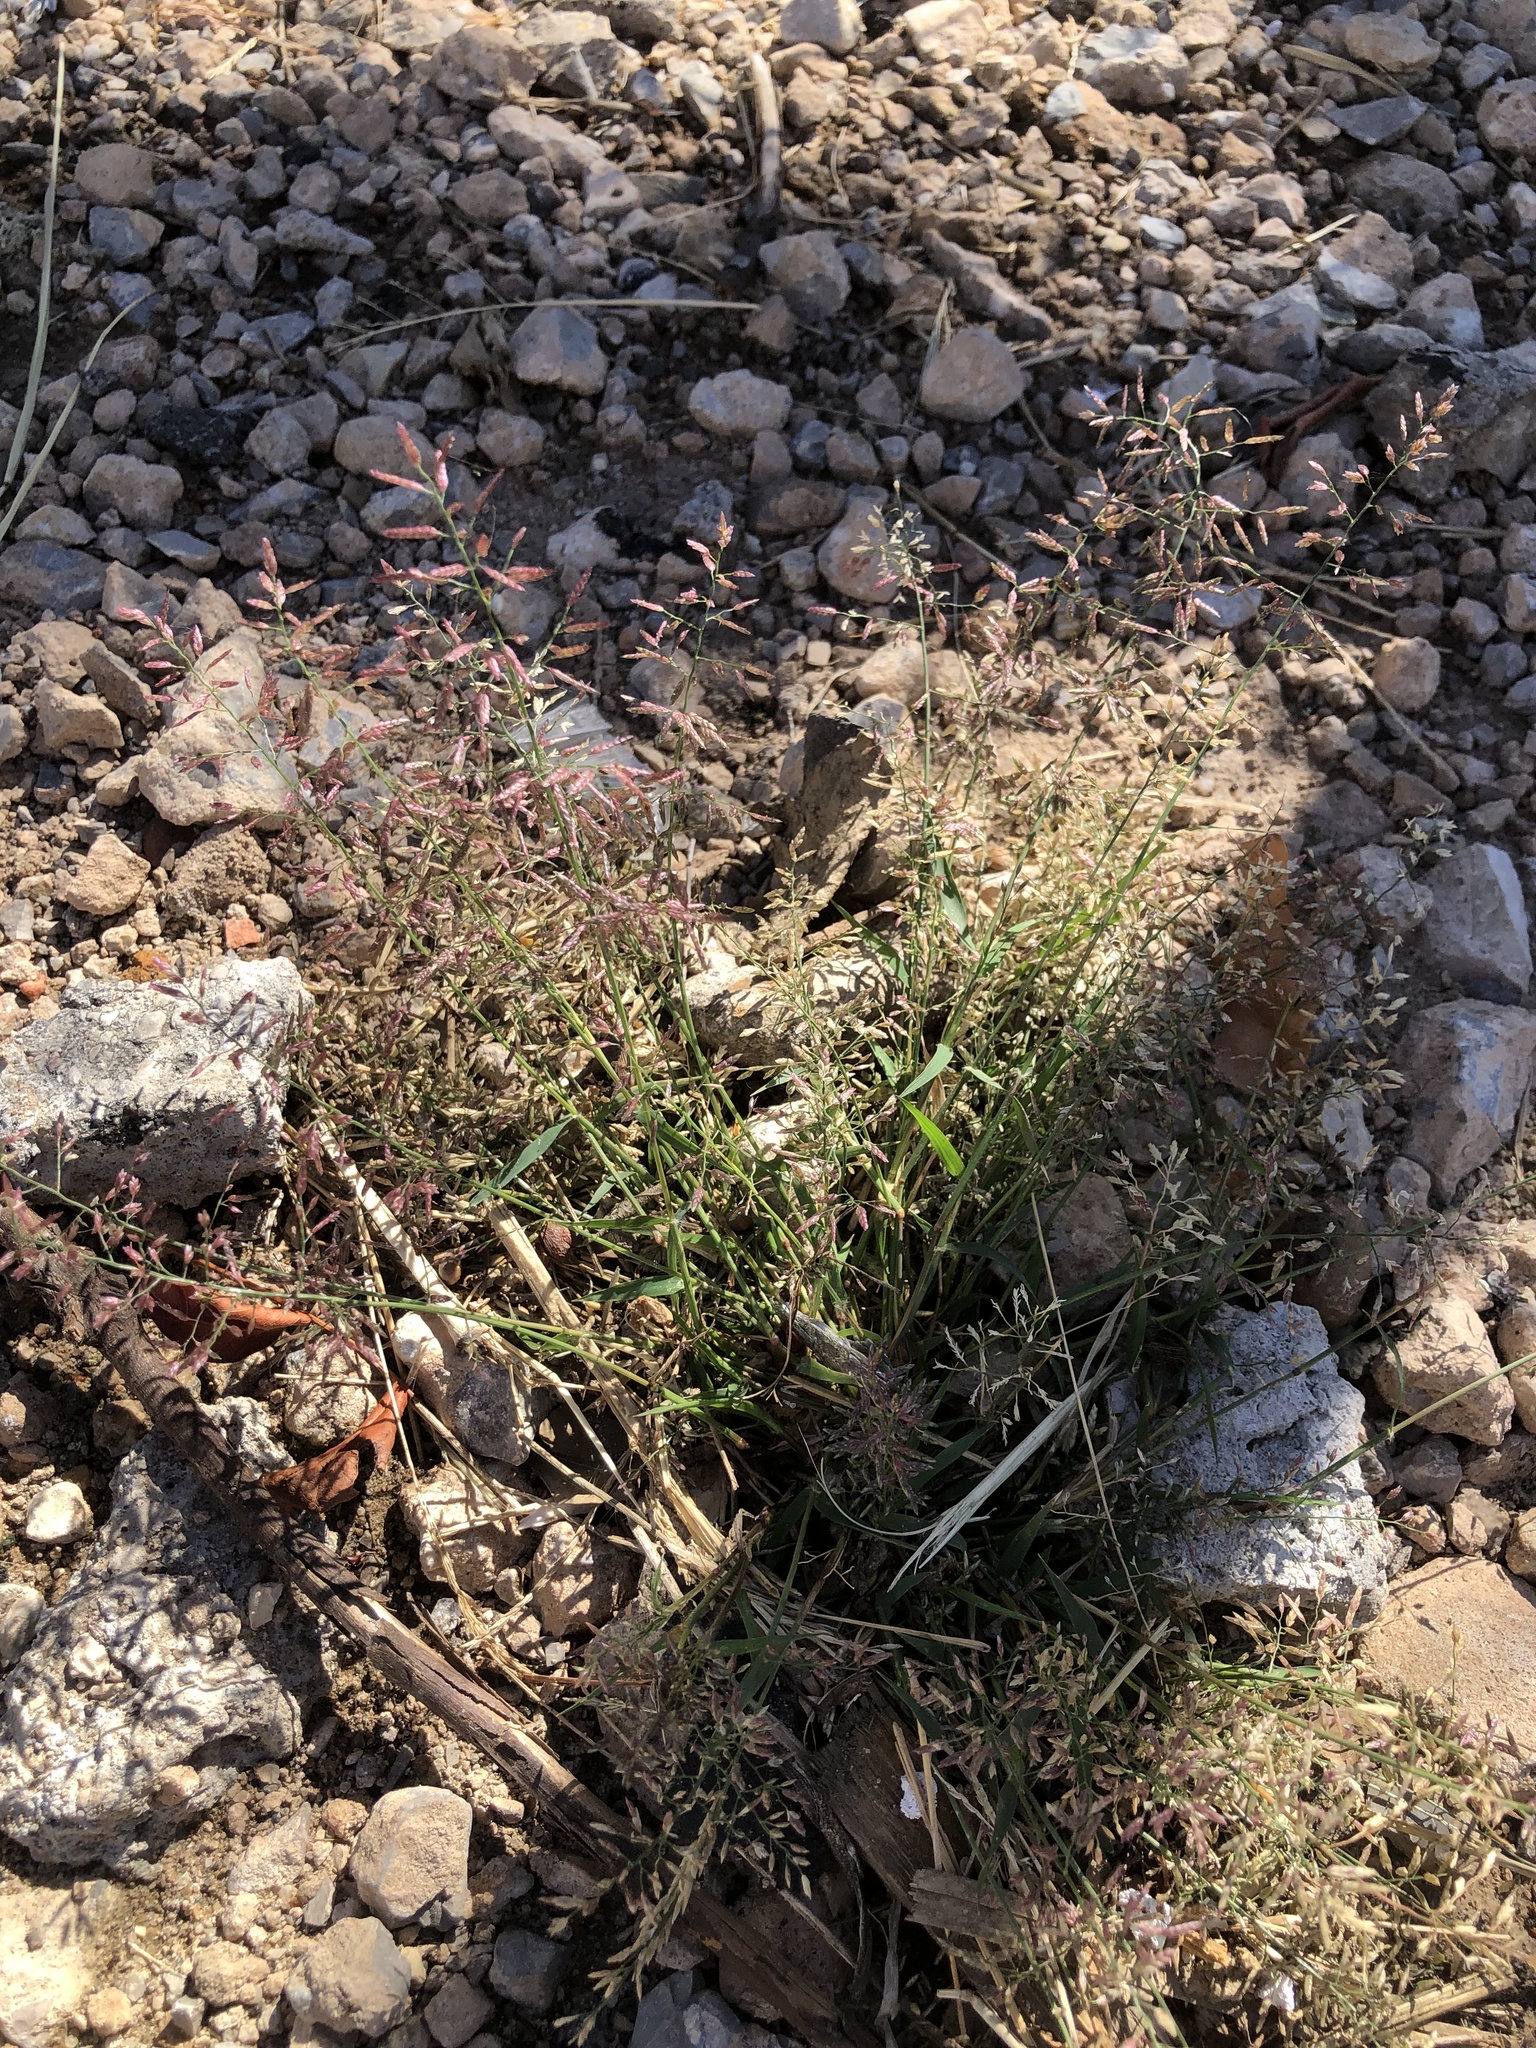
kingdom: Plantae
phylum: Tracheophyta
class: Liliopsida
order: Poales
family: Poaceae
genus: Eragrostis
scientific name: Eragrostis minor
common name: Small love-grass
